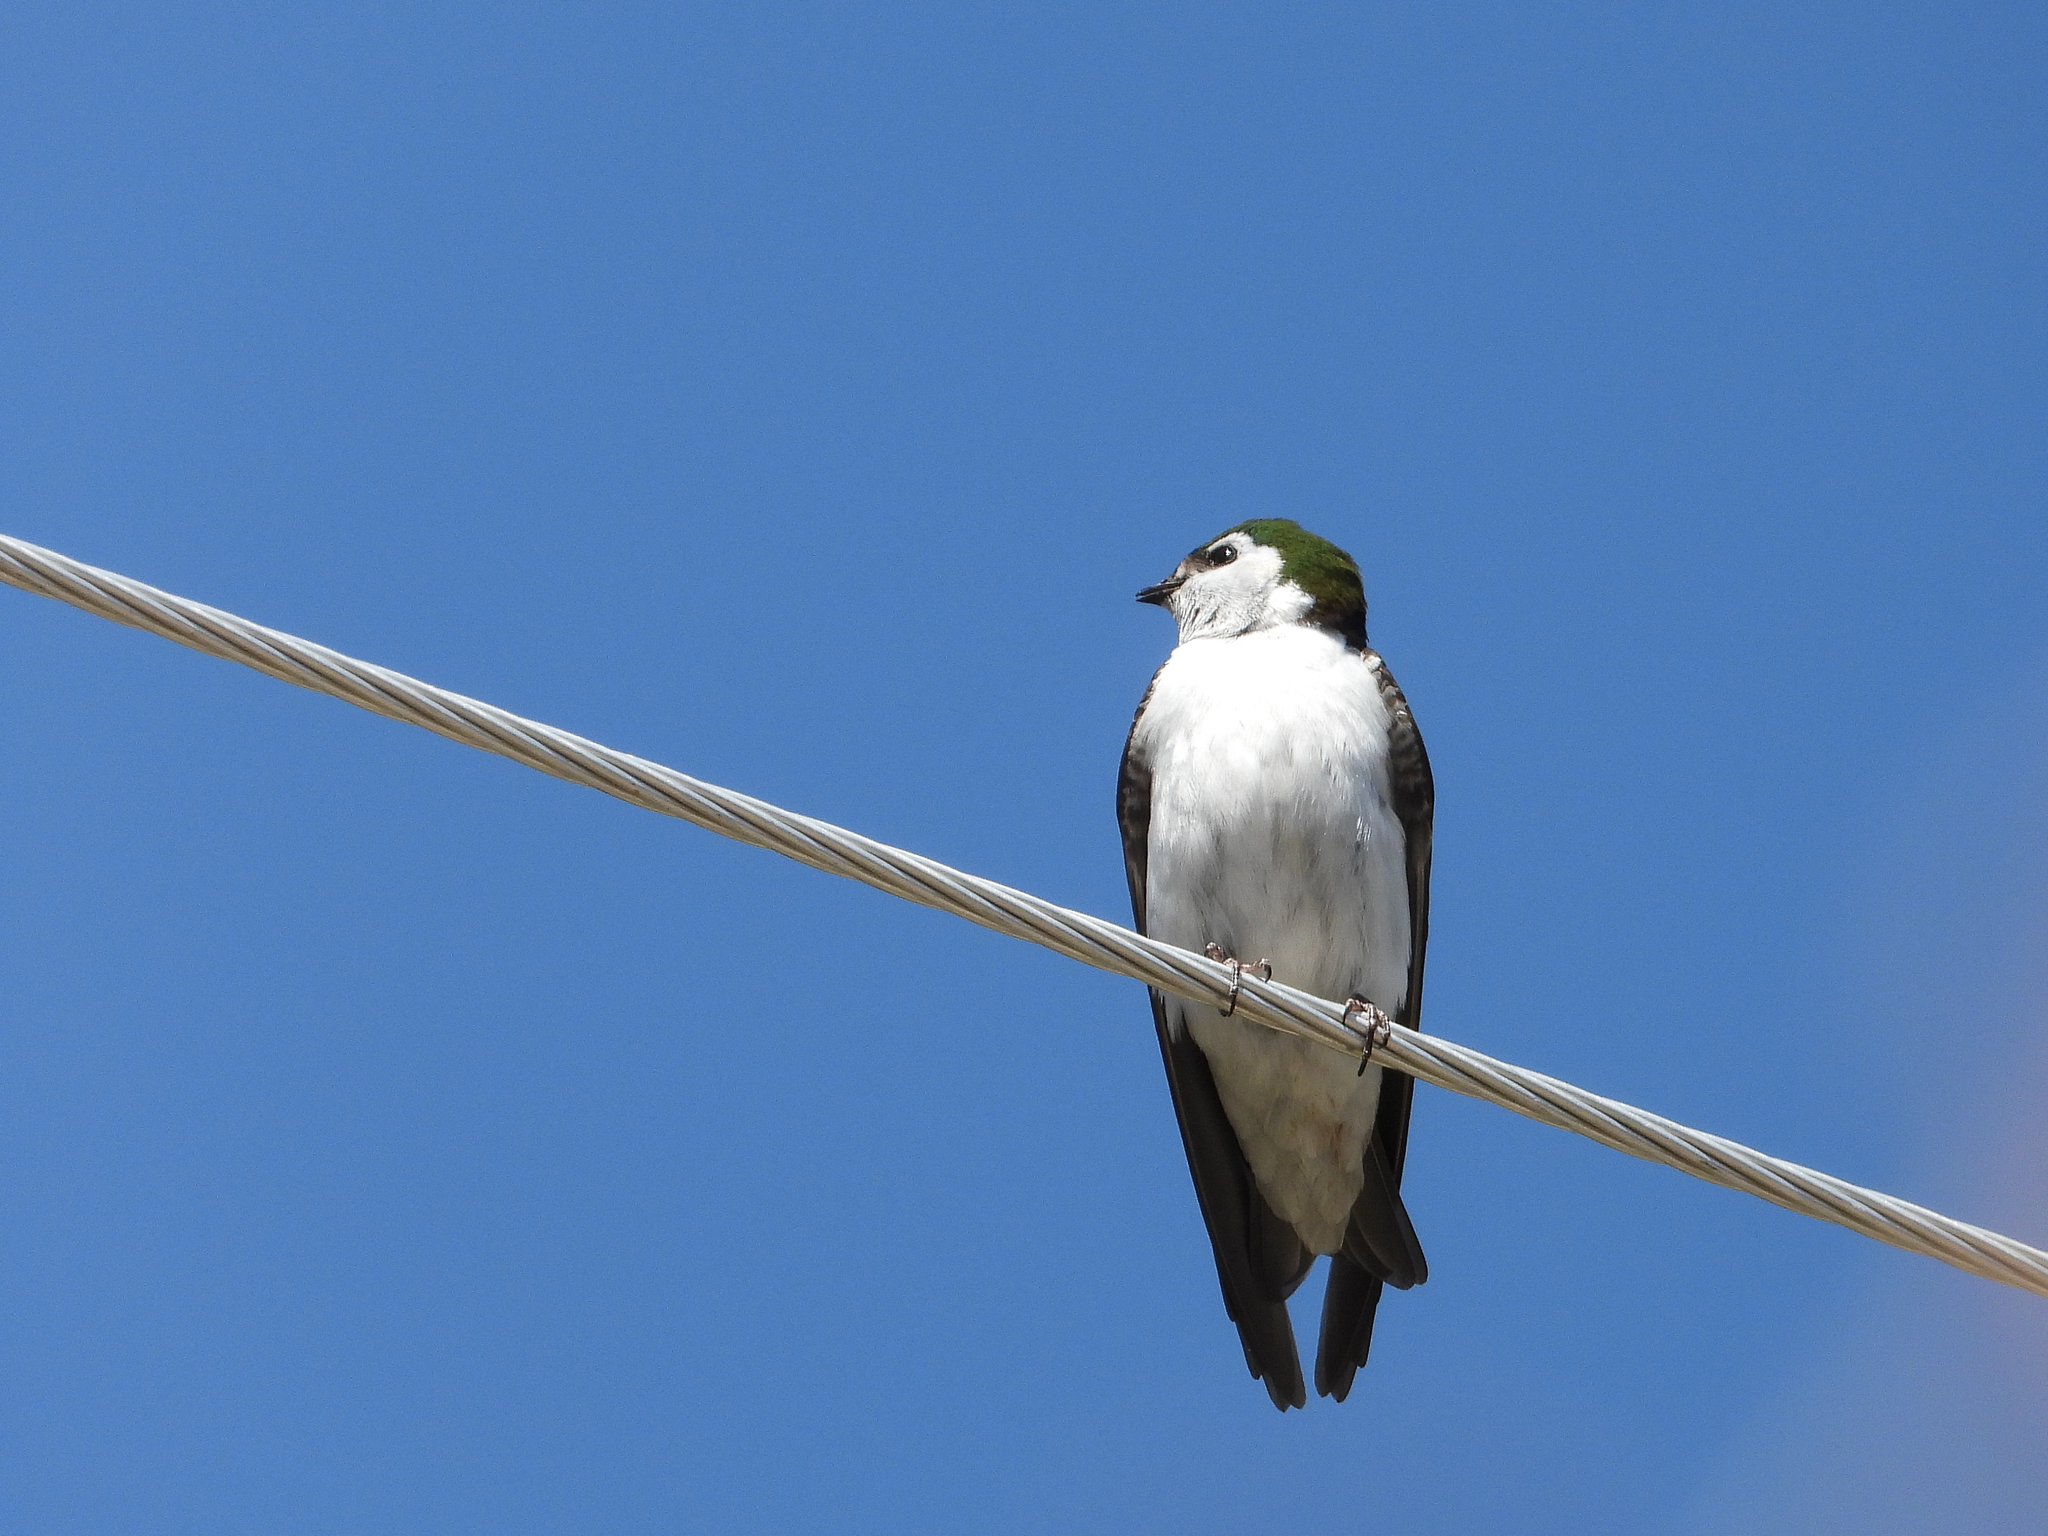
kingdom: Animalia
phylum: Chordata
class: Aves
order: Passeriformes
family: Hirundinidae
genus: Tachycineta
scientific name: Tachycineta thalassina
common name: Violet-green swallow
